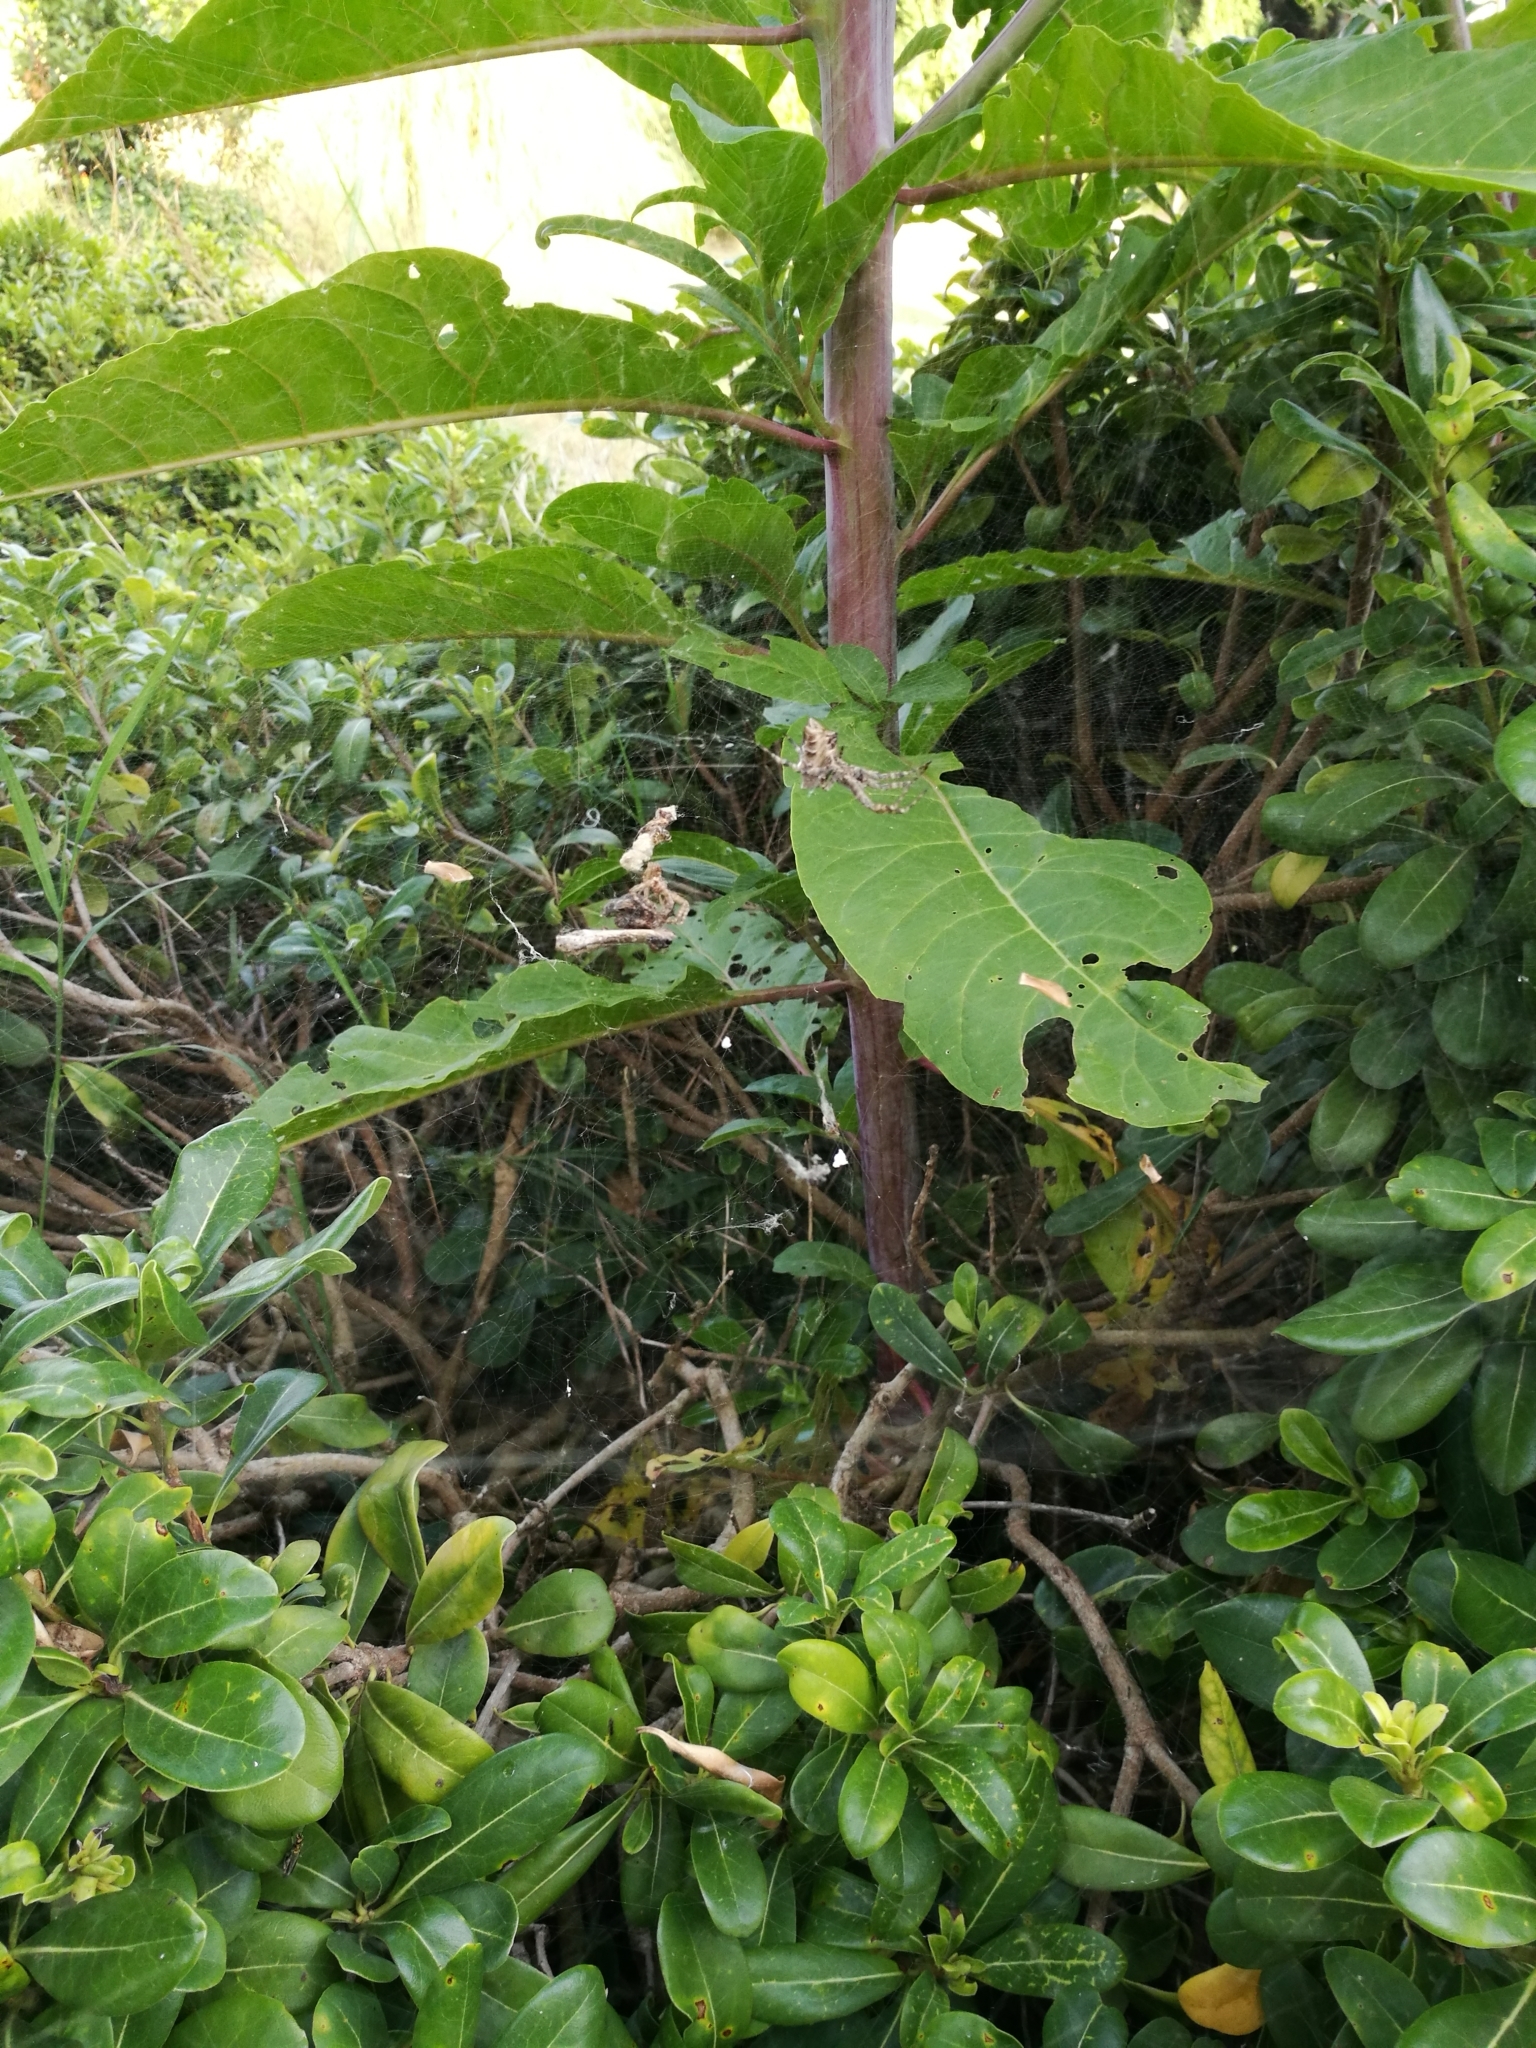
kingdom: Animalia
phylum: Arthropoda
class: Arachnida
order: Araneae
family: Araneidae
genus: Cyrtophora
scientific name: Cyrtophora citricola
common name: Orb weavers
